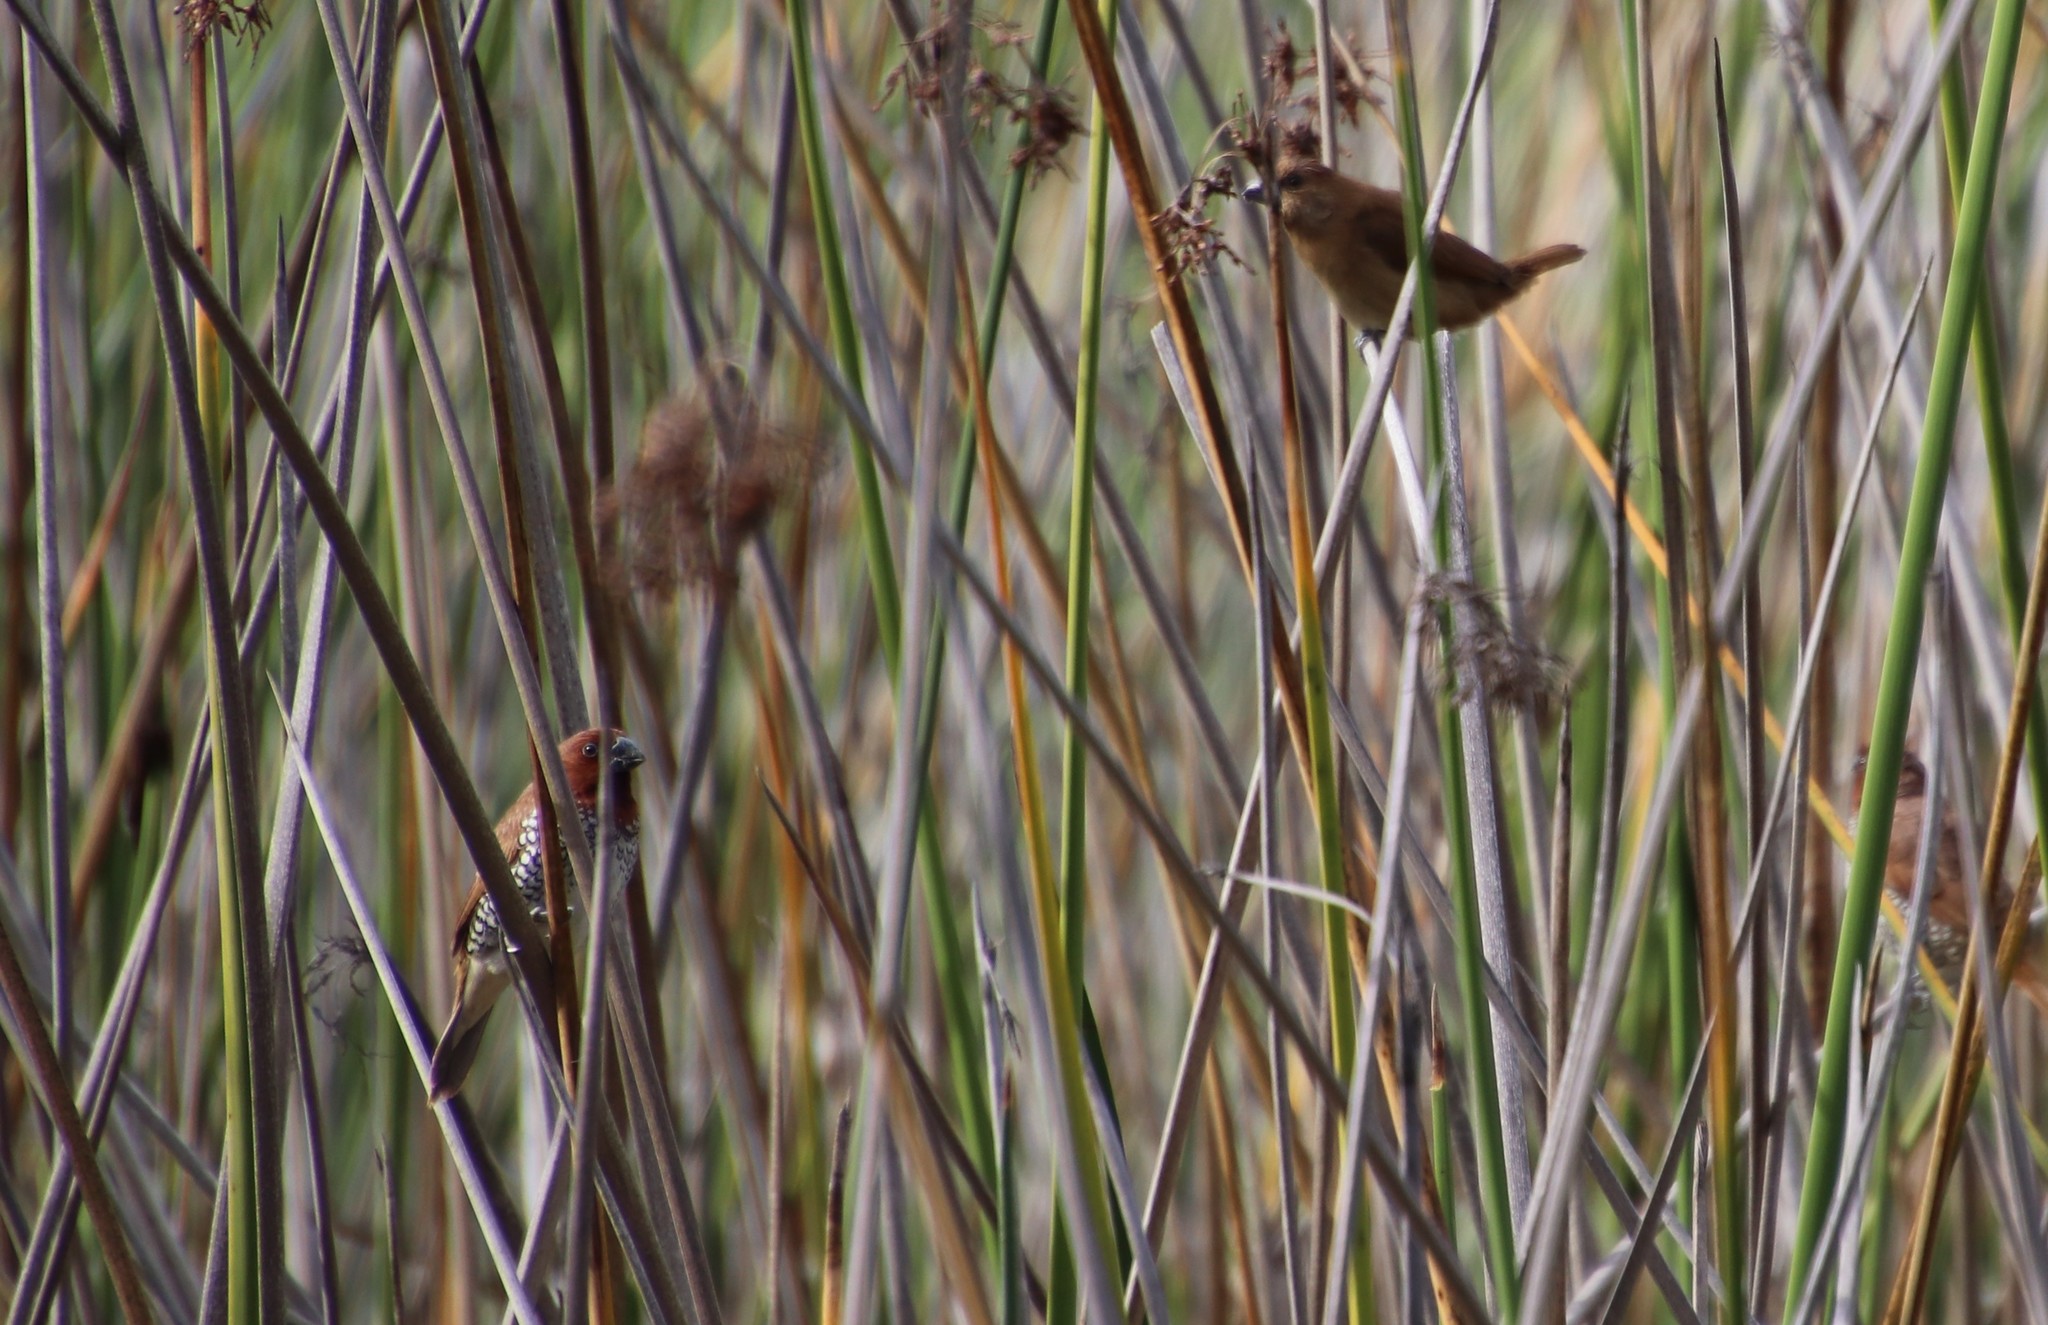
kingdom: Animalia
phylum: Chordata
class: Aves
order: Passeriformes
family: Estrildidae
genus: Lonchura
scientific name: Lonchura punctulata
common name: Scaly-breasted munia
